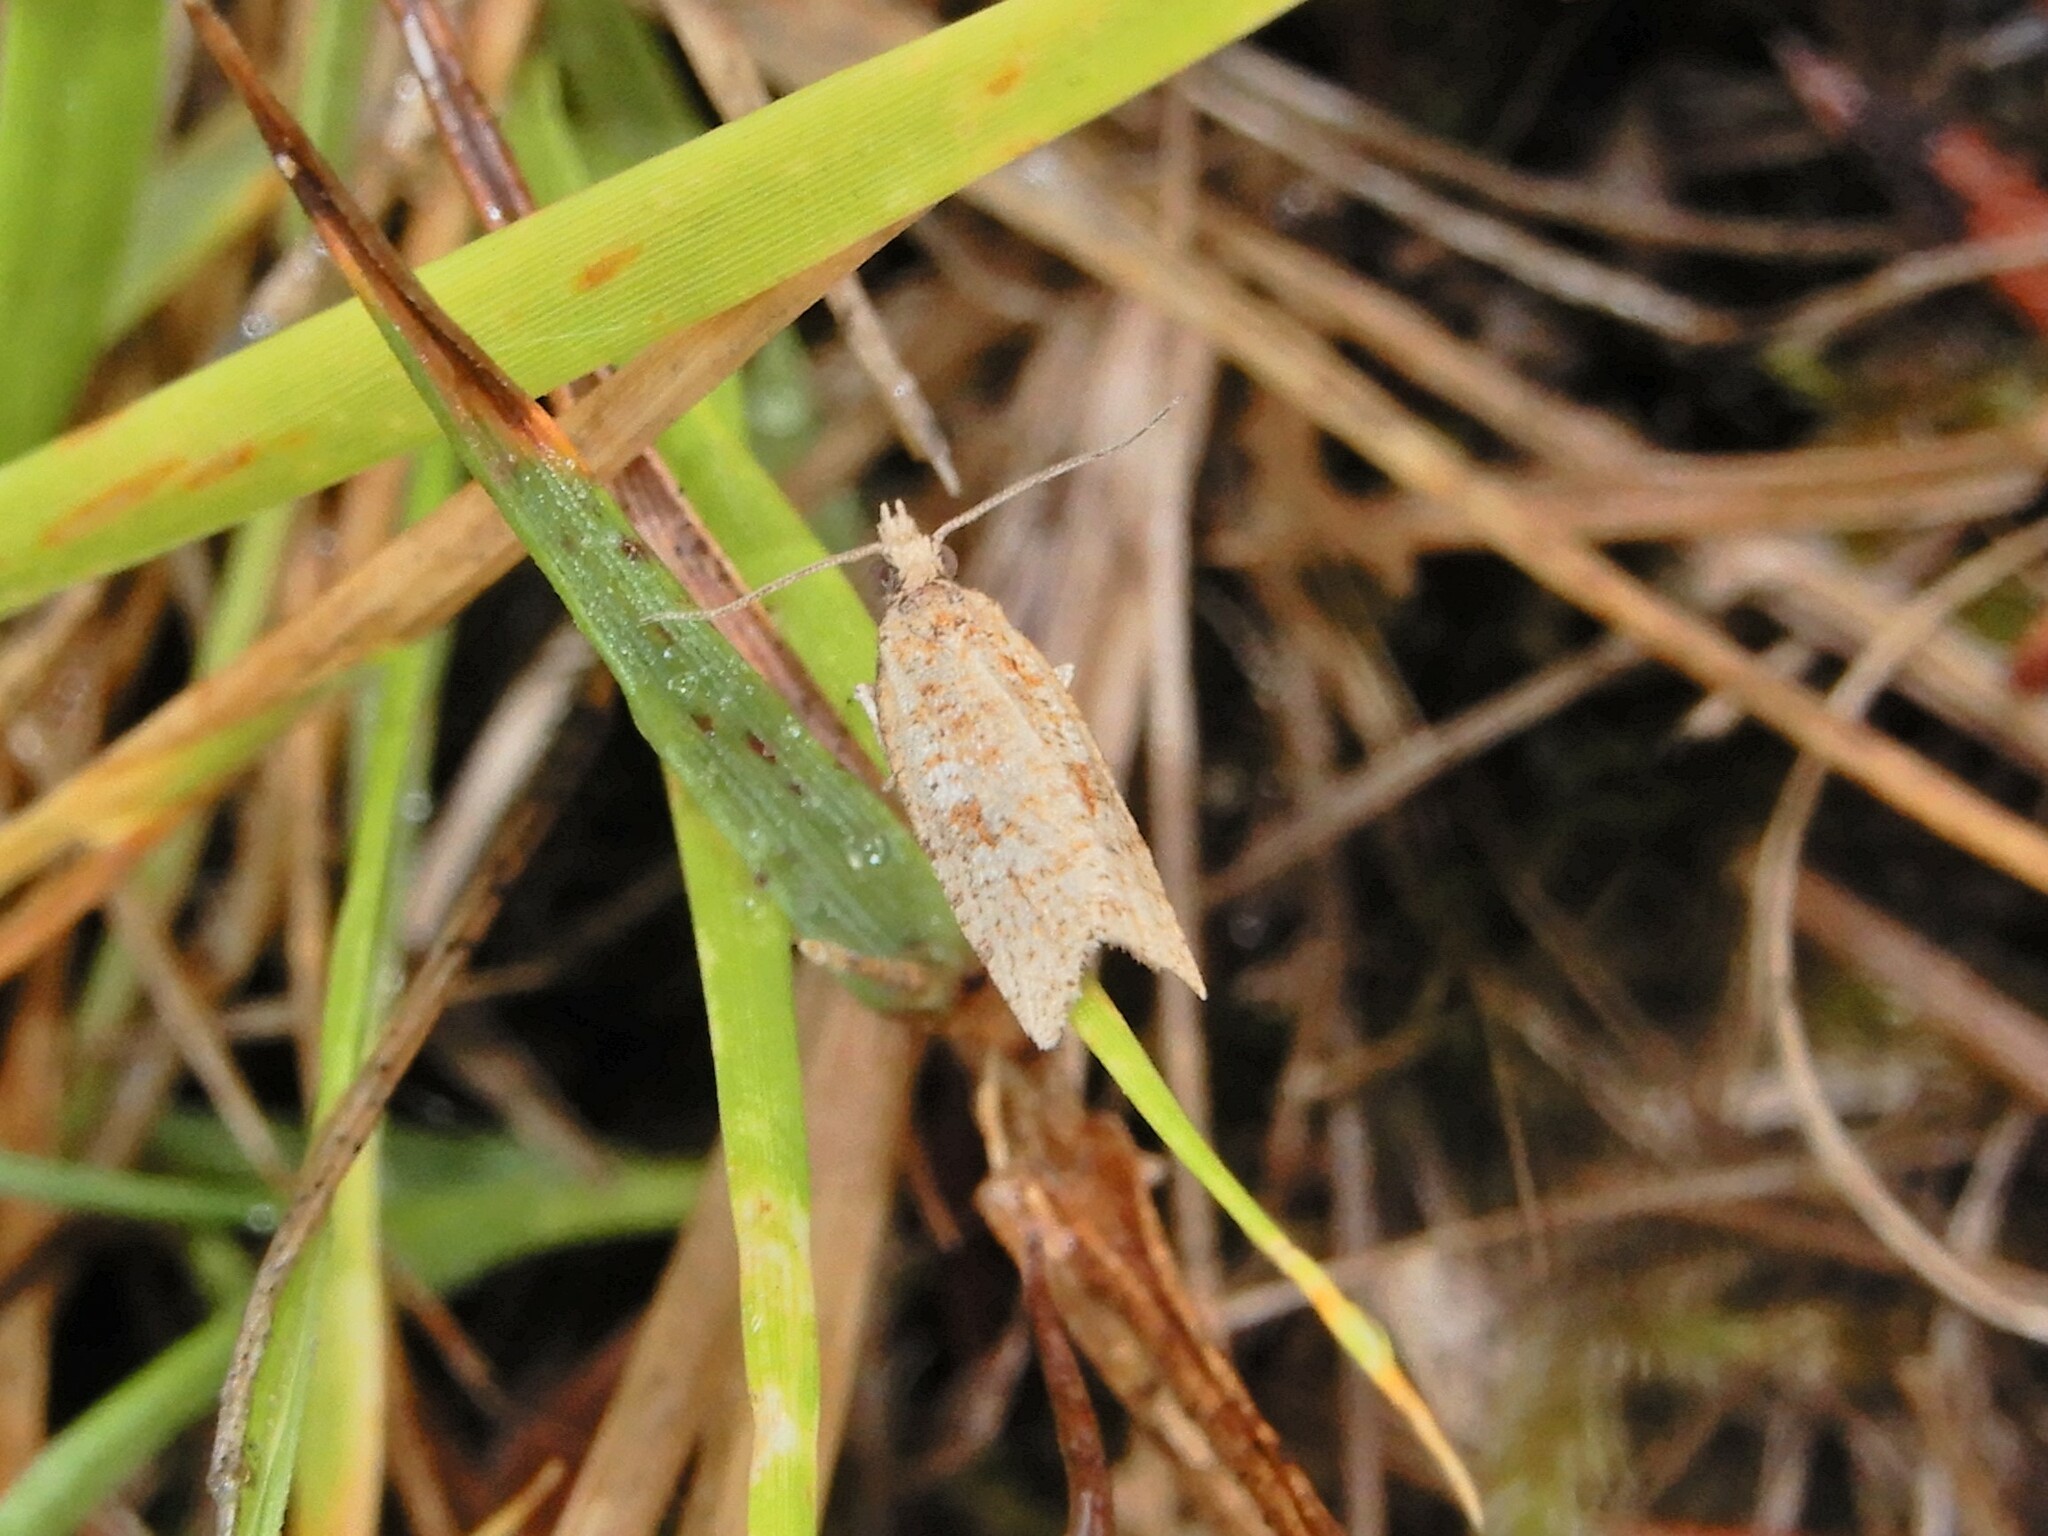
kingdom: Animalia
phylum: Arthropoda
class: Insecta
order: Lepidoptera
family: Tortricidae
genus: Capua
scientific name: Capua semiferana
